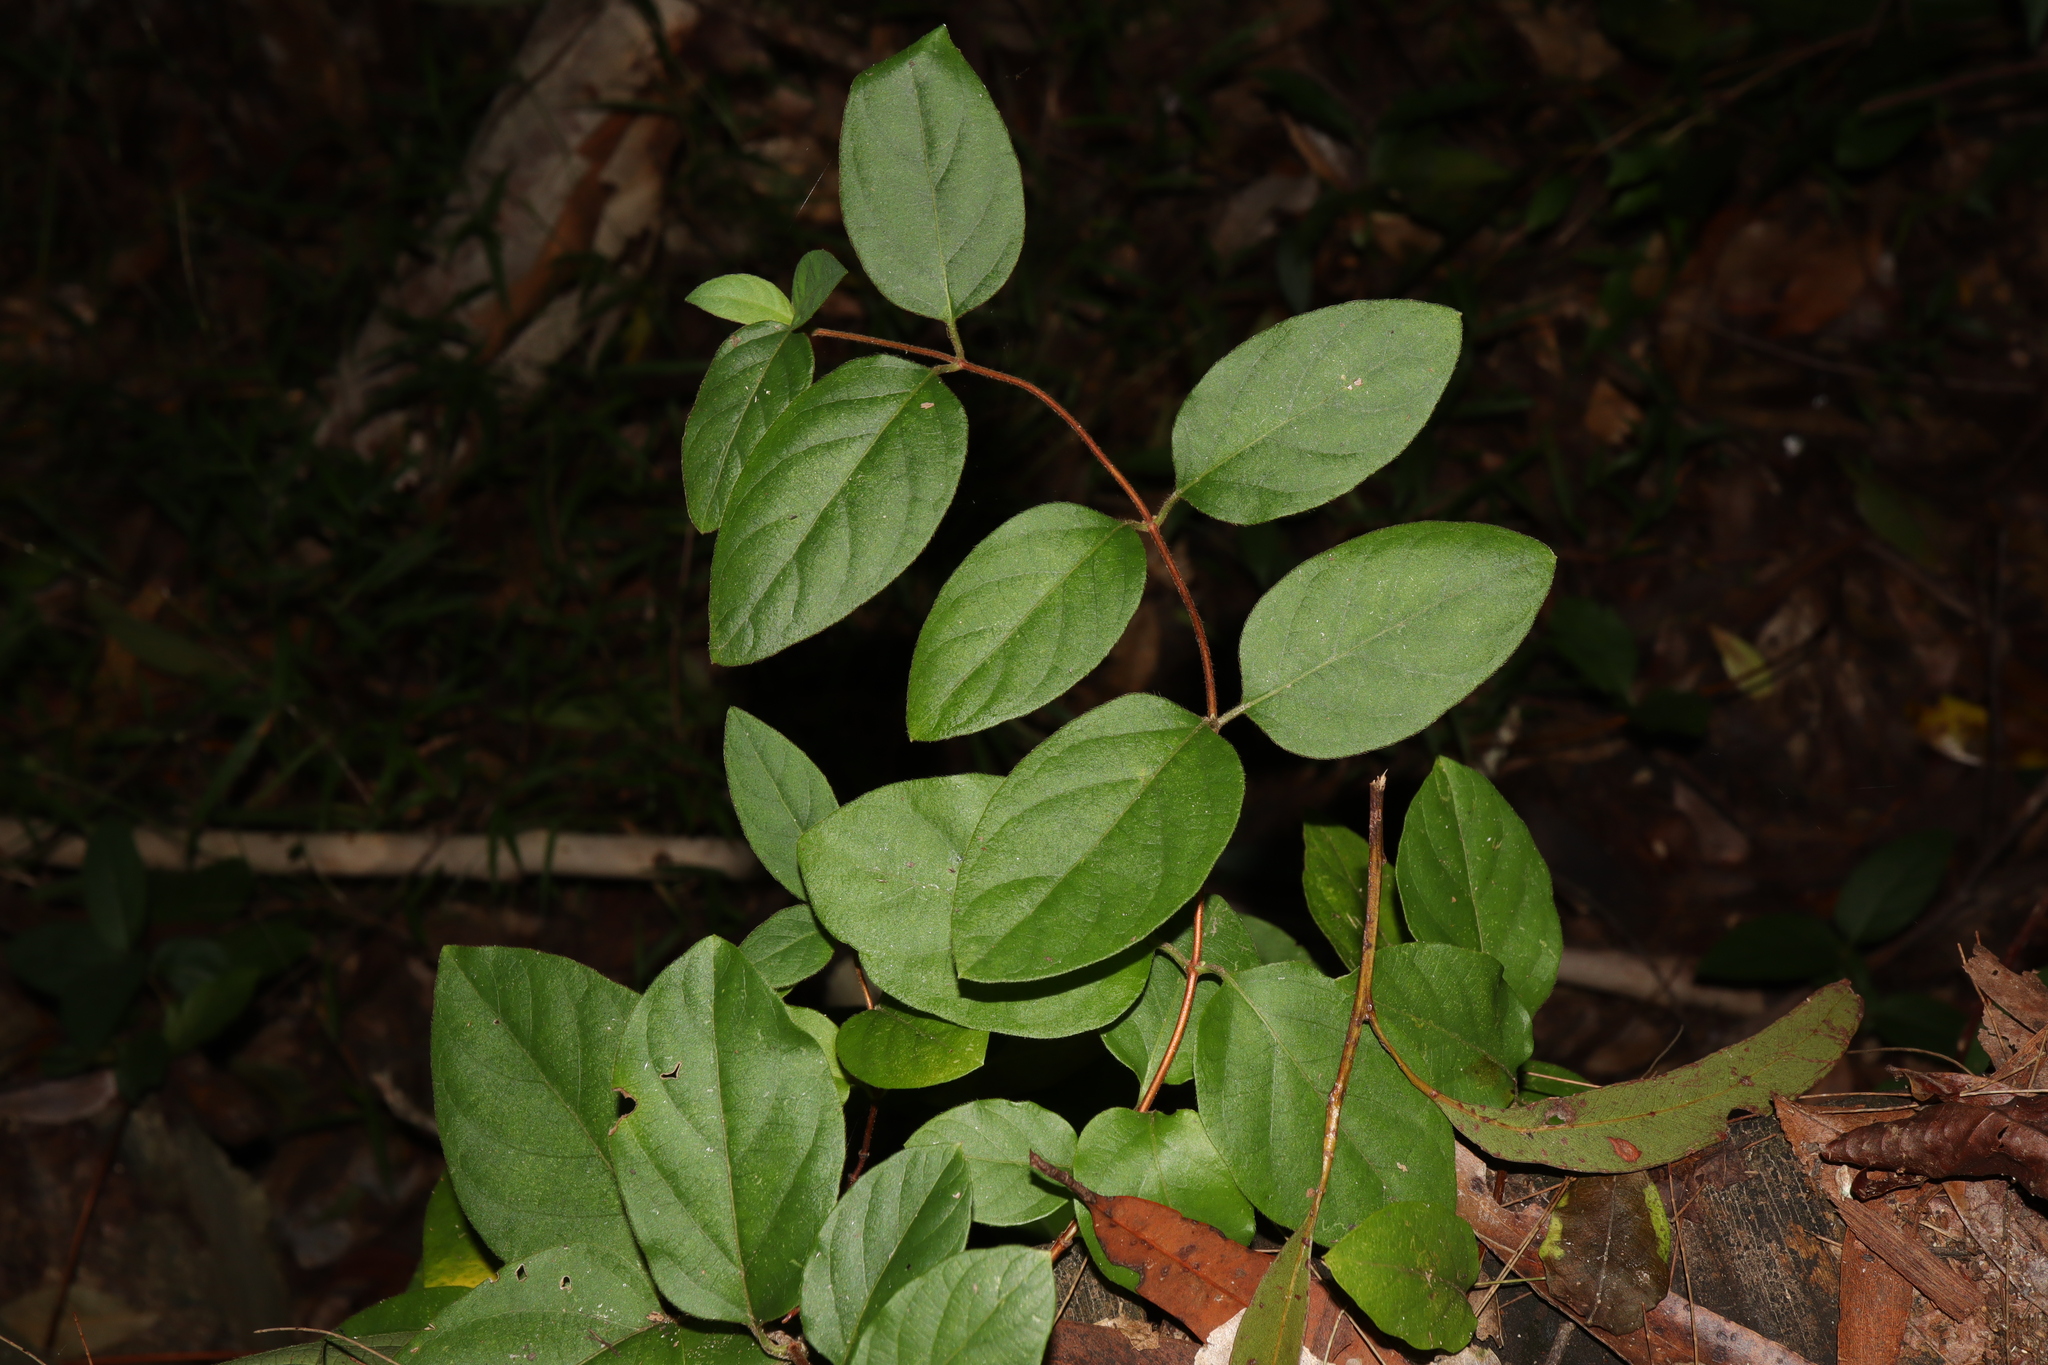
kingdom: Plantae
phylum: Tracheophyta
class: Magnoliopsida
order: Dipsacales
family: Caprifoliaceae
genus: Lonicera
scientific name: Lonicera japonica
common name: Japanese honeysuckle
